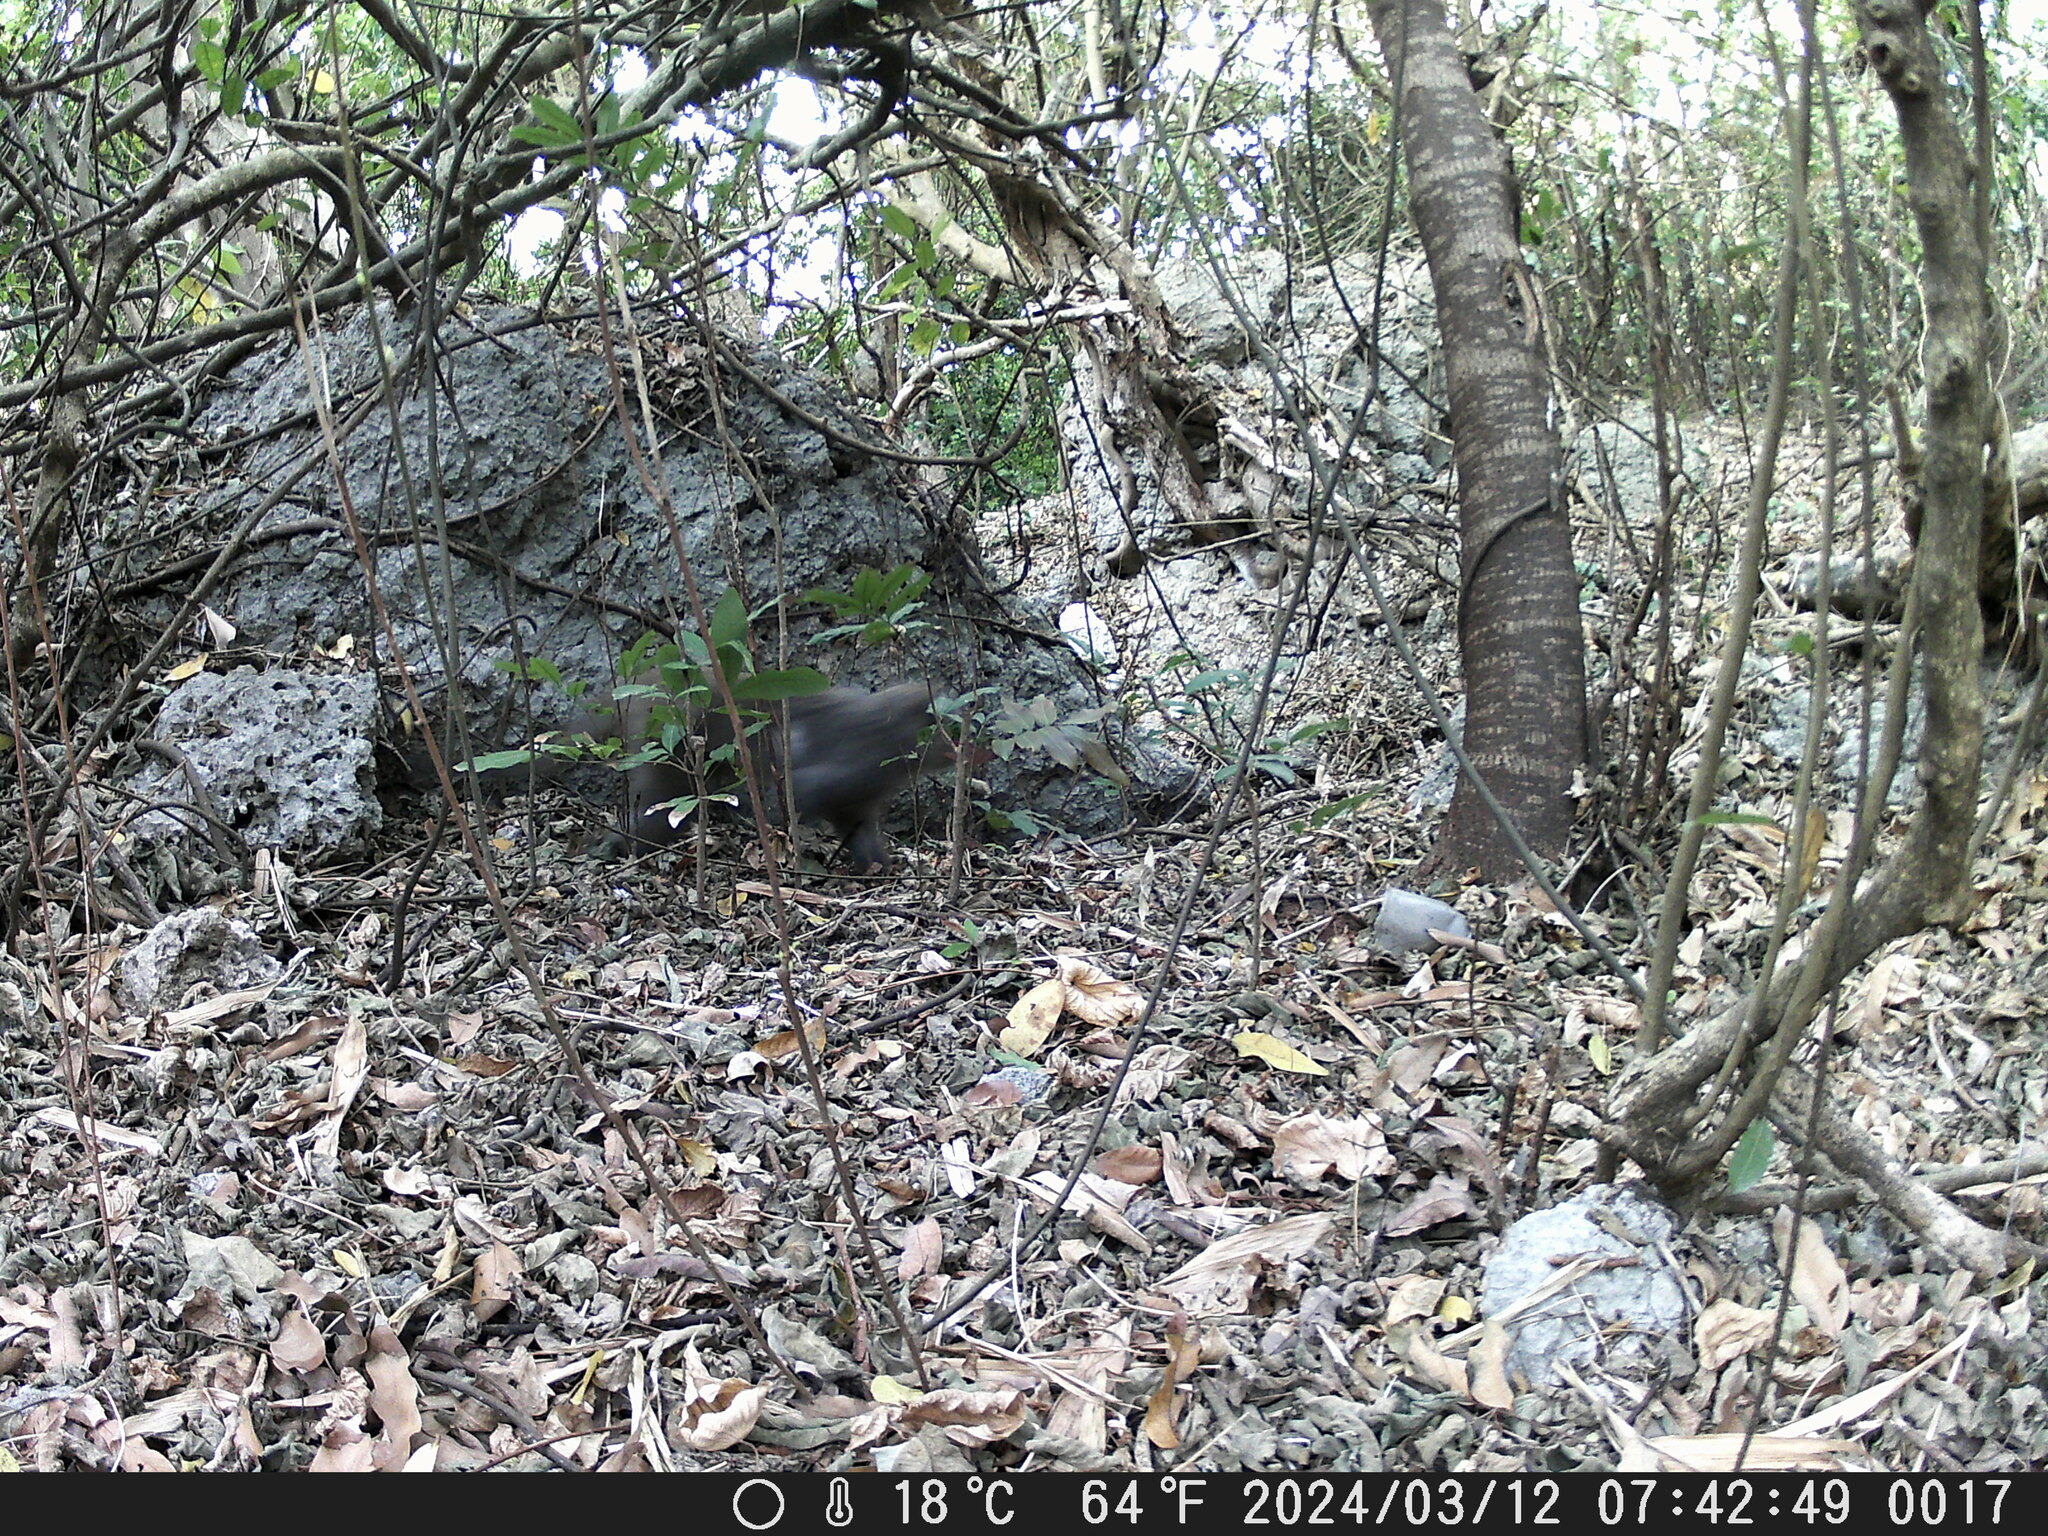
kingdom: Animalia
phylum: Chordata
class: Mammalia
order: Primates
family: Cercopithecidae
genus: Macaca
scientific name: Macaca cyclopis
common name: Formosan rock macaque
